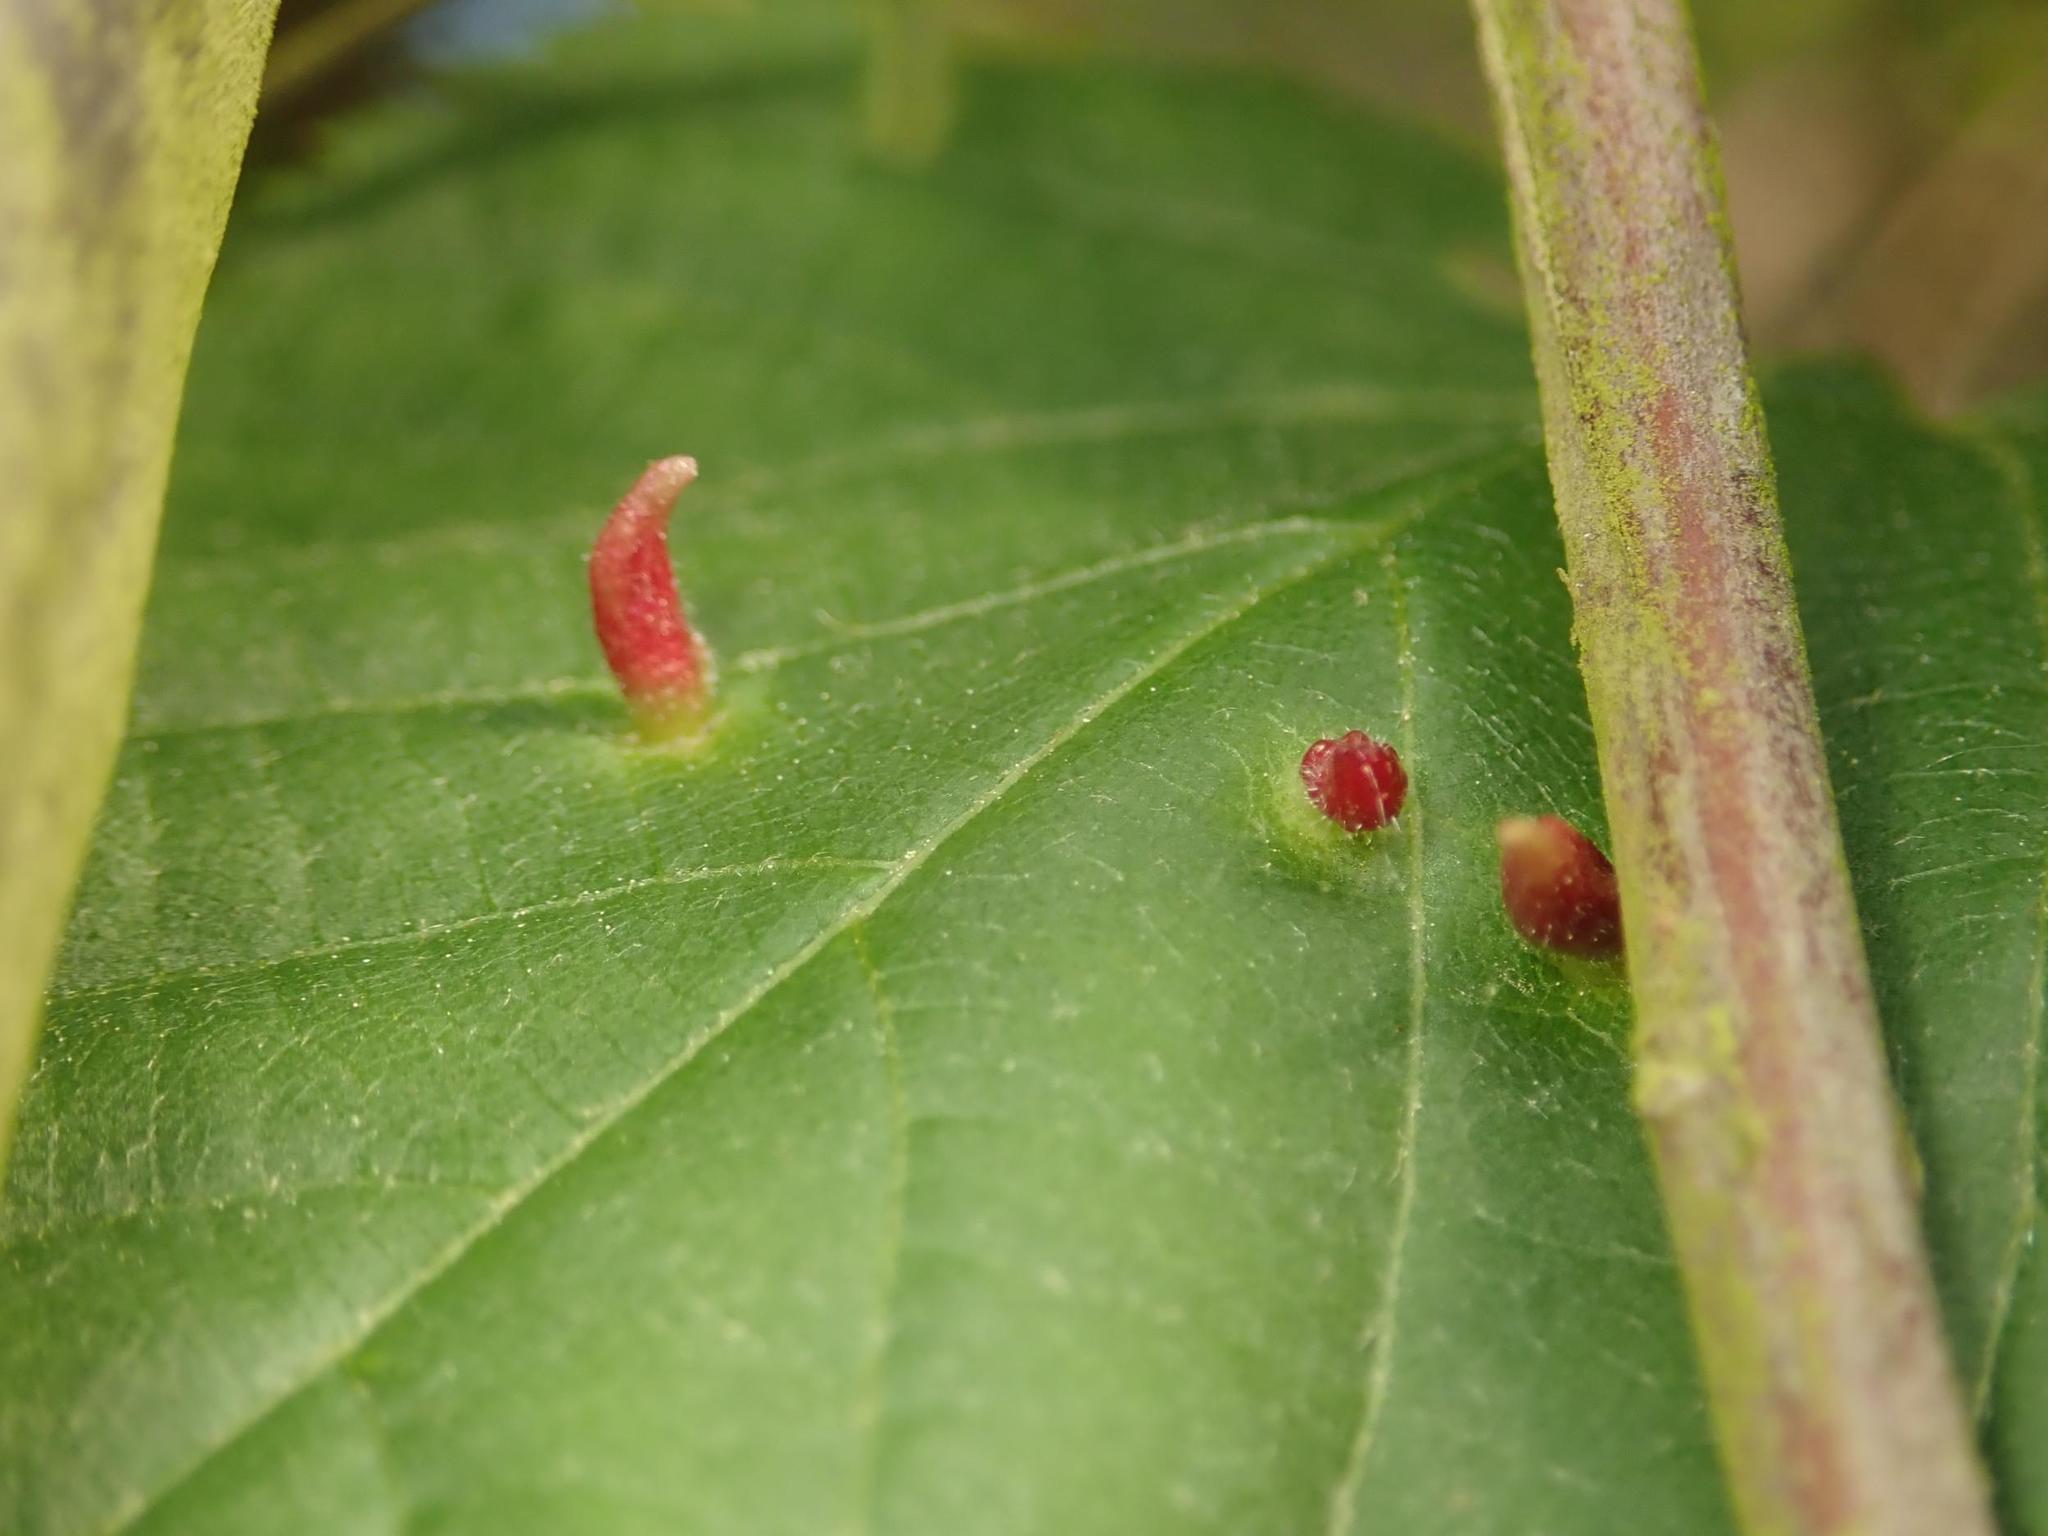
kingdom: Animalia
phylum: Arthropoda
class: Arachnida
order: Trombidiformes
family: Eriophyidae
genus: Eriophyes
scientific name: Eriophyes tiliae
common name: Red nail gall mite
